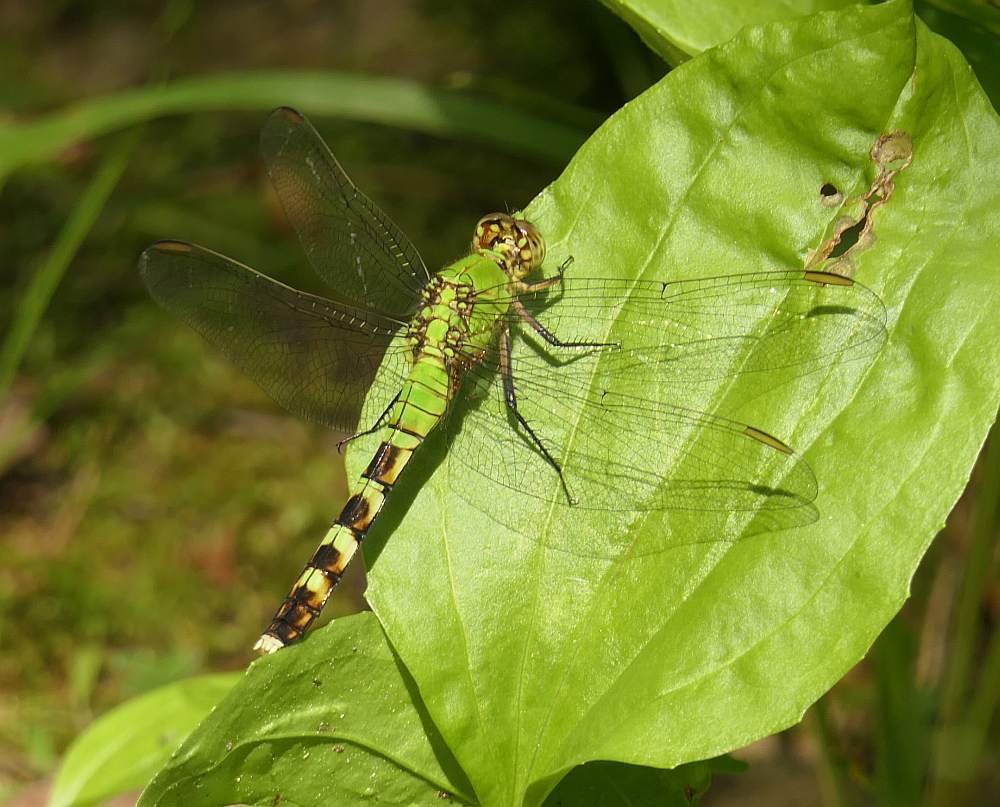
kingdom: Animalia
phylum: Arthropoda
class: Insecta
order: Odonata
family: Libellulidae
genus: Erythemis
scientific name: Erythemis simplicicollis
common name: Eastern pondhawk
